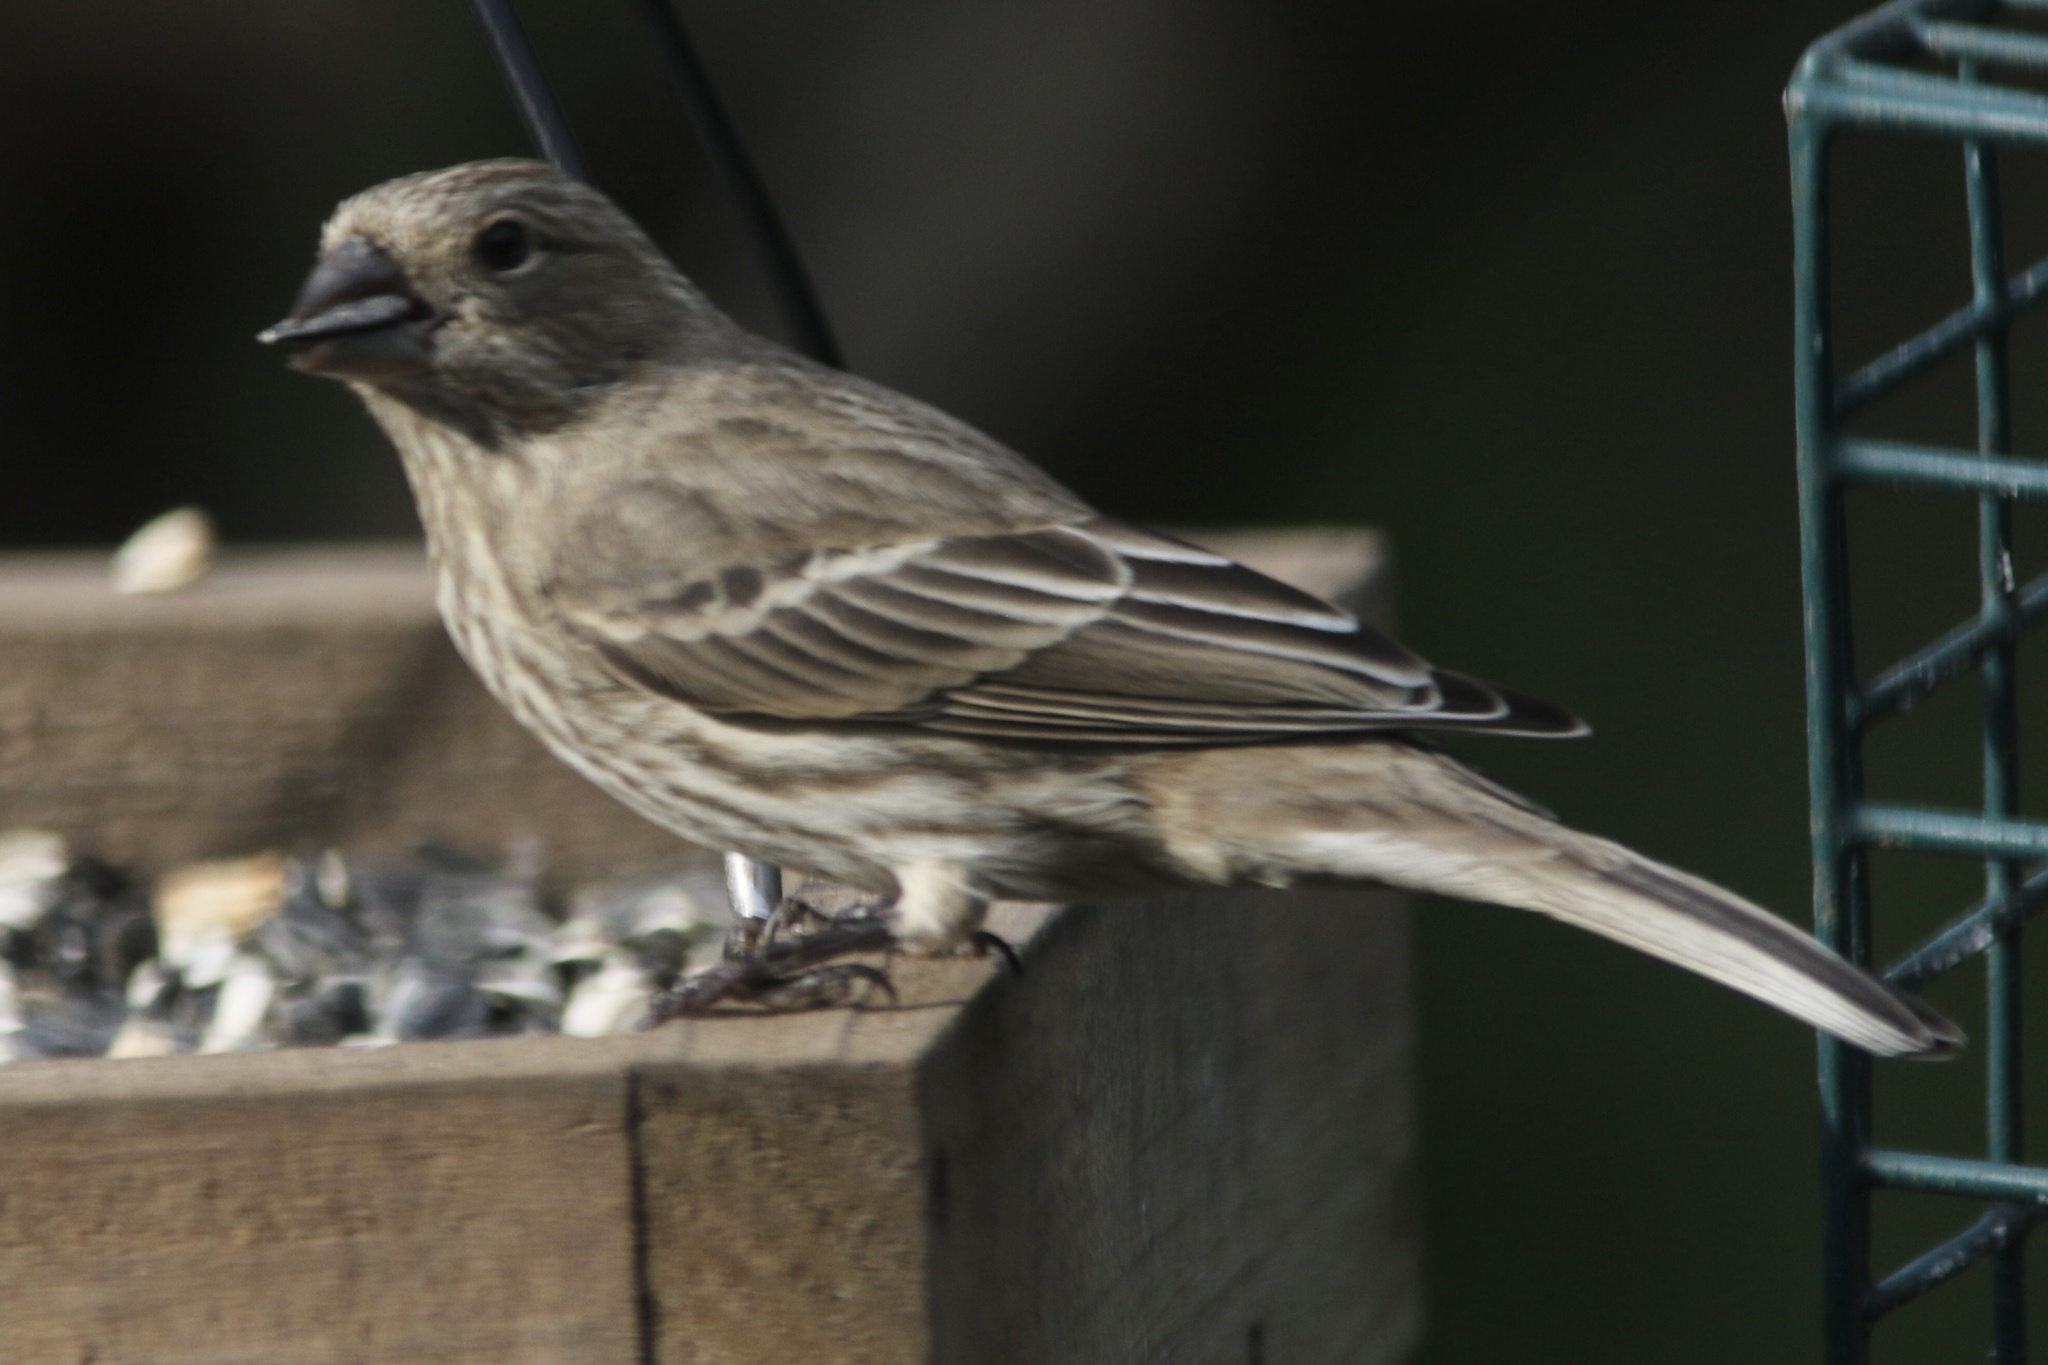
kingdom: Animalia
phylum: Chordata
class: Aves
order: Passeriformes
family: Fringillidae
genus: Haemorhous
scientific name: Haemorhous mexicanus
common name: House finch
